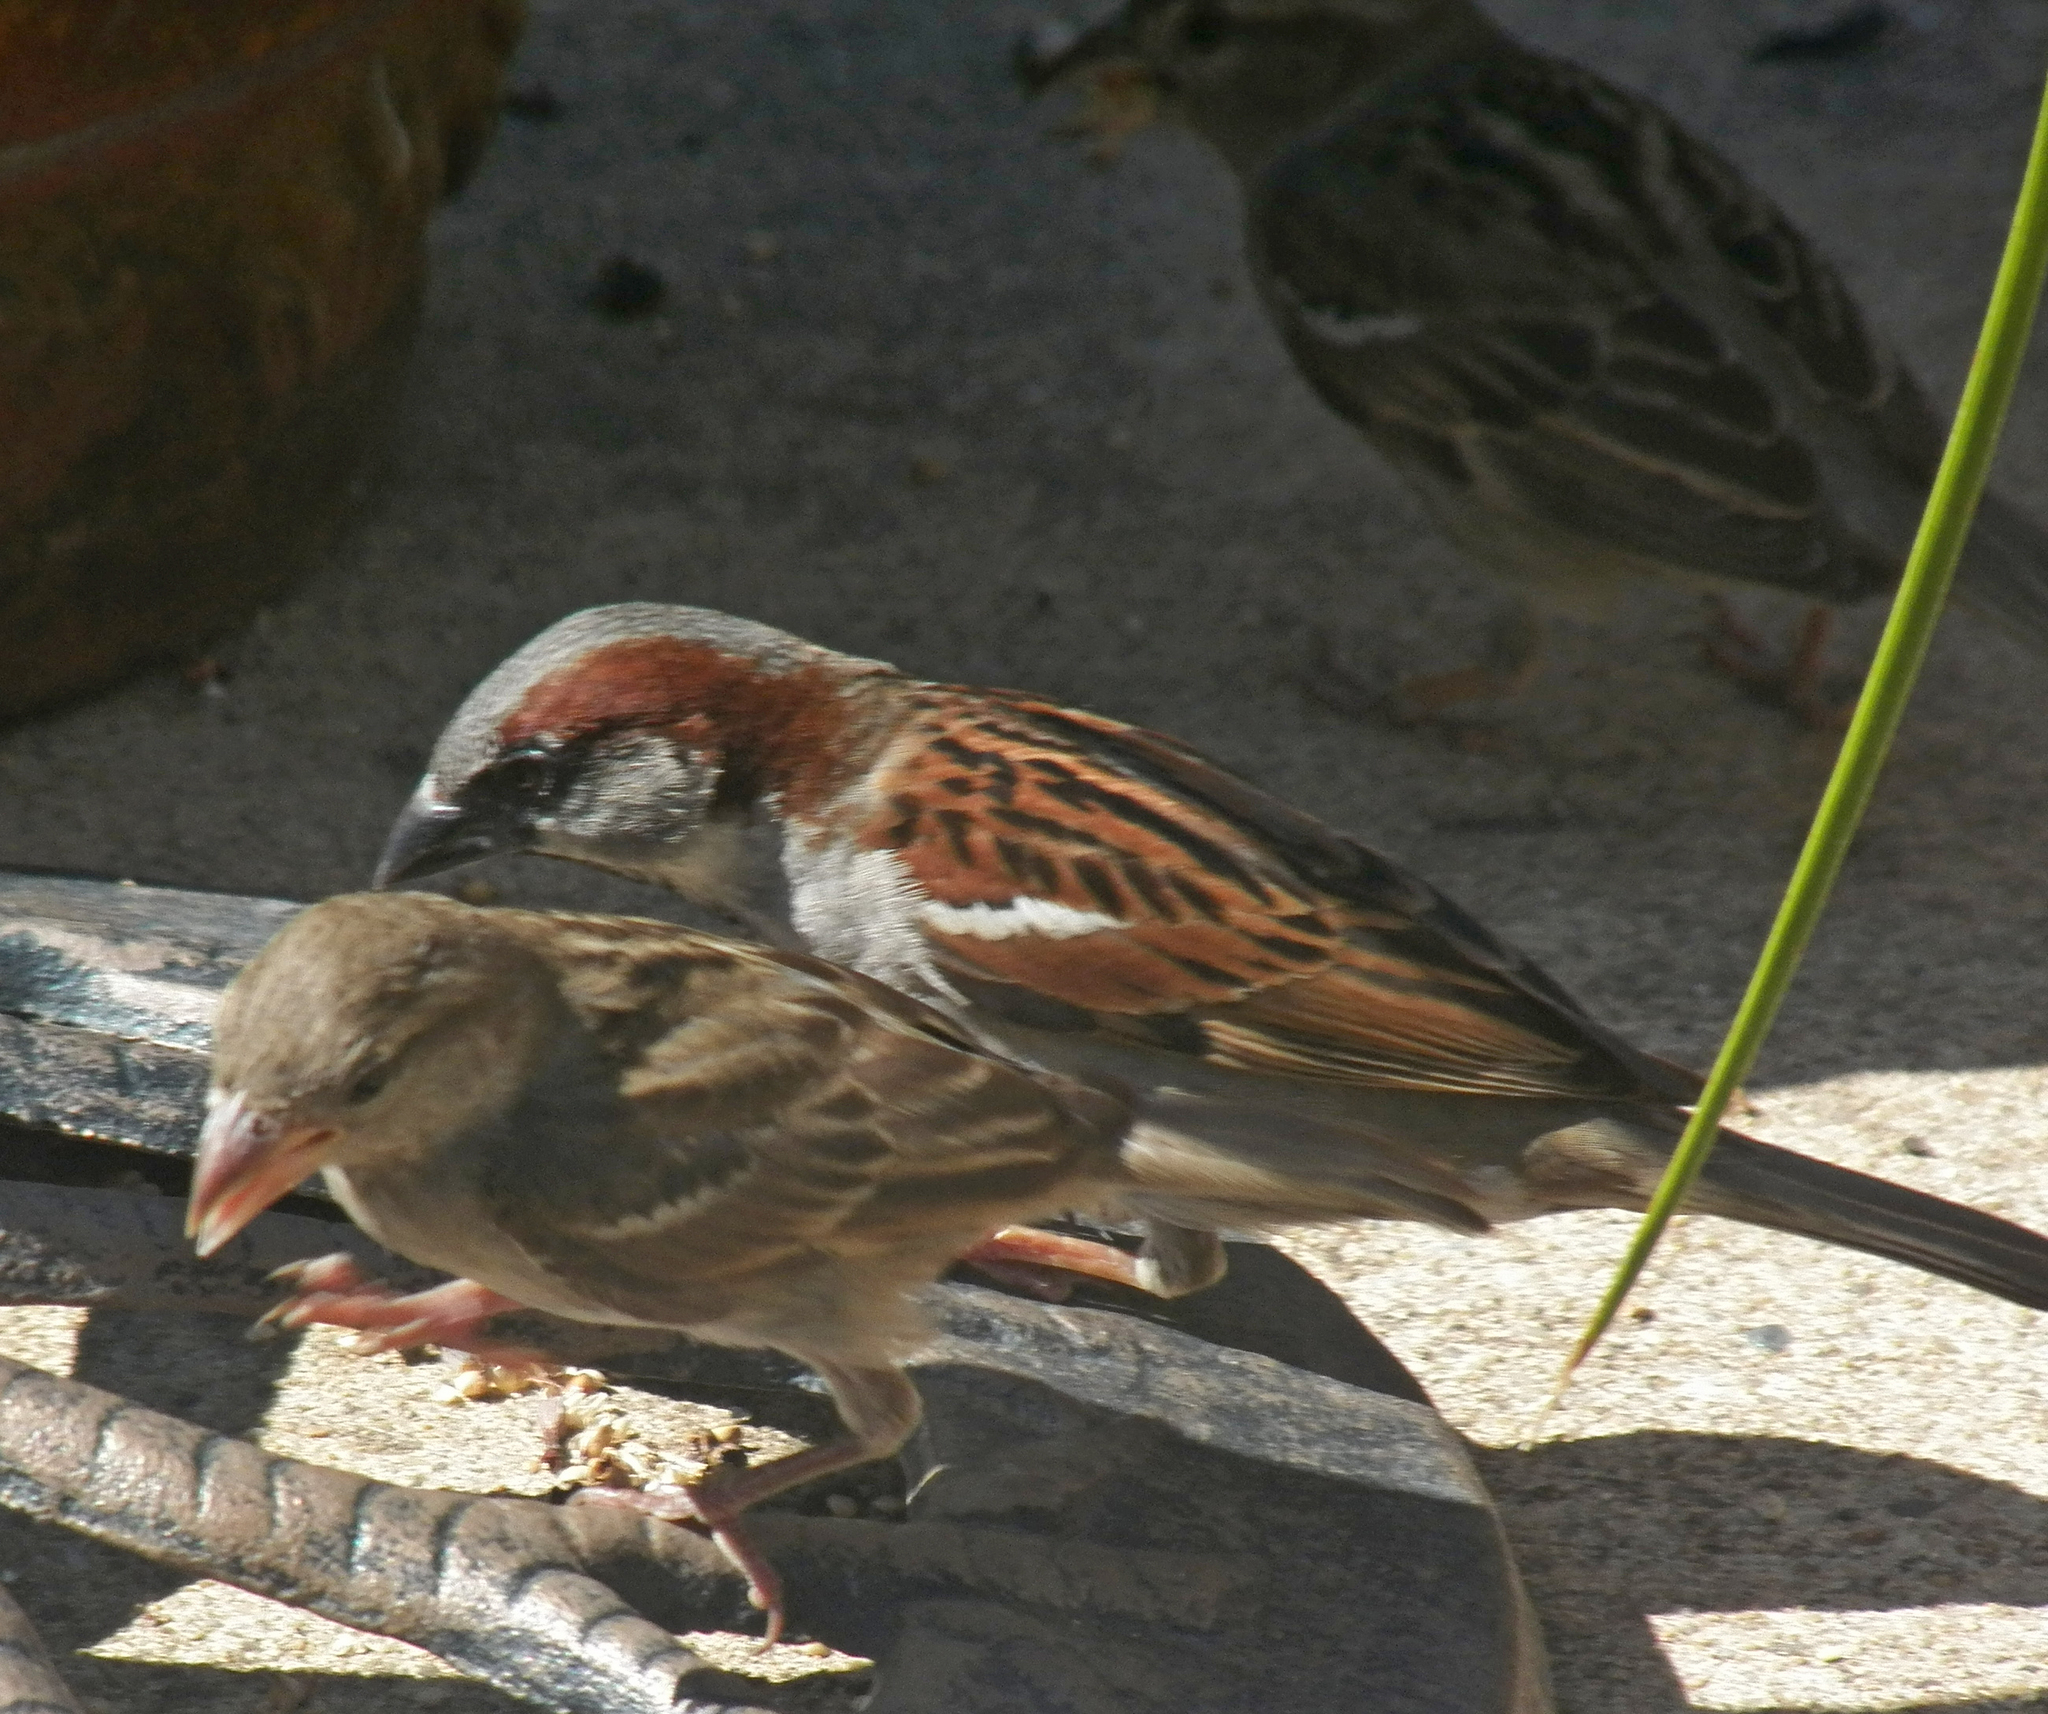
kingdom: Animalia
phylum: Chordata
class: Aves
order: Passeriformes
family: Passeridae
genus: Passer
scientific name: Passer domesticus
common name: House sparrow
